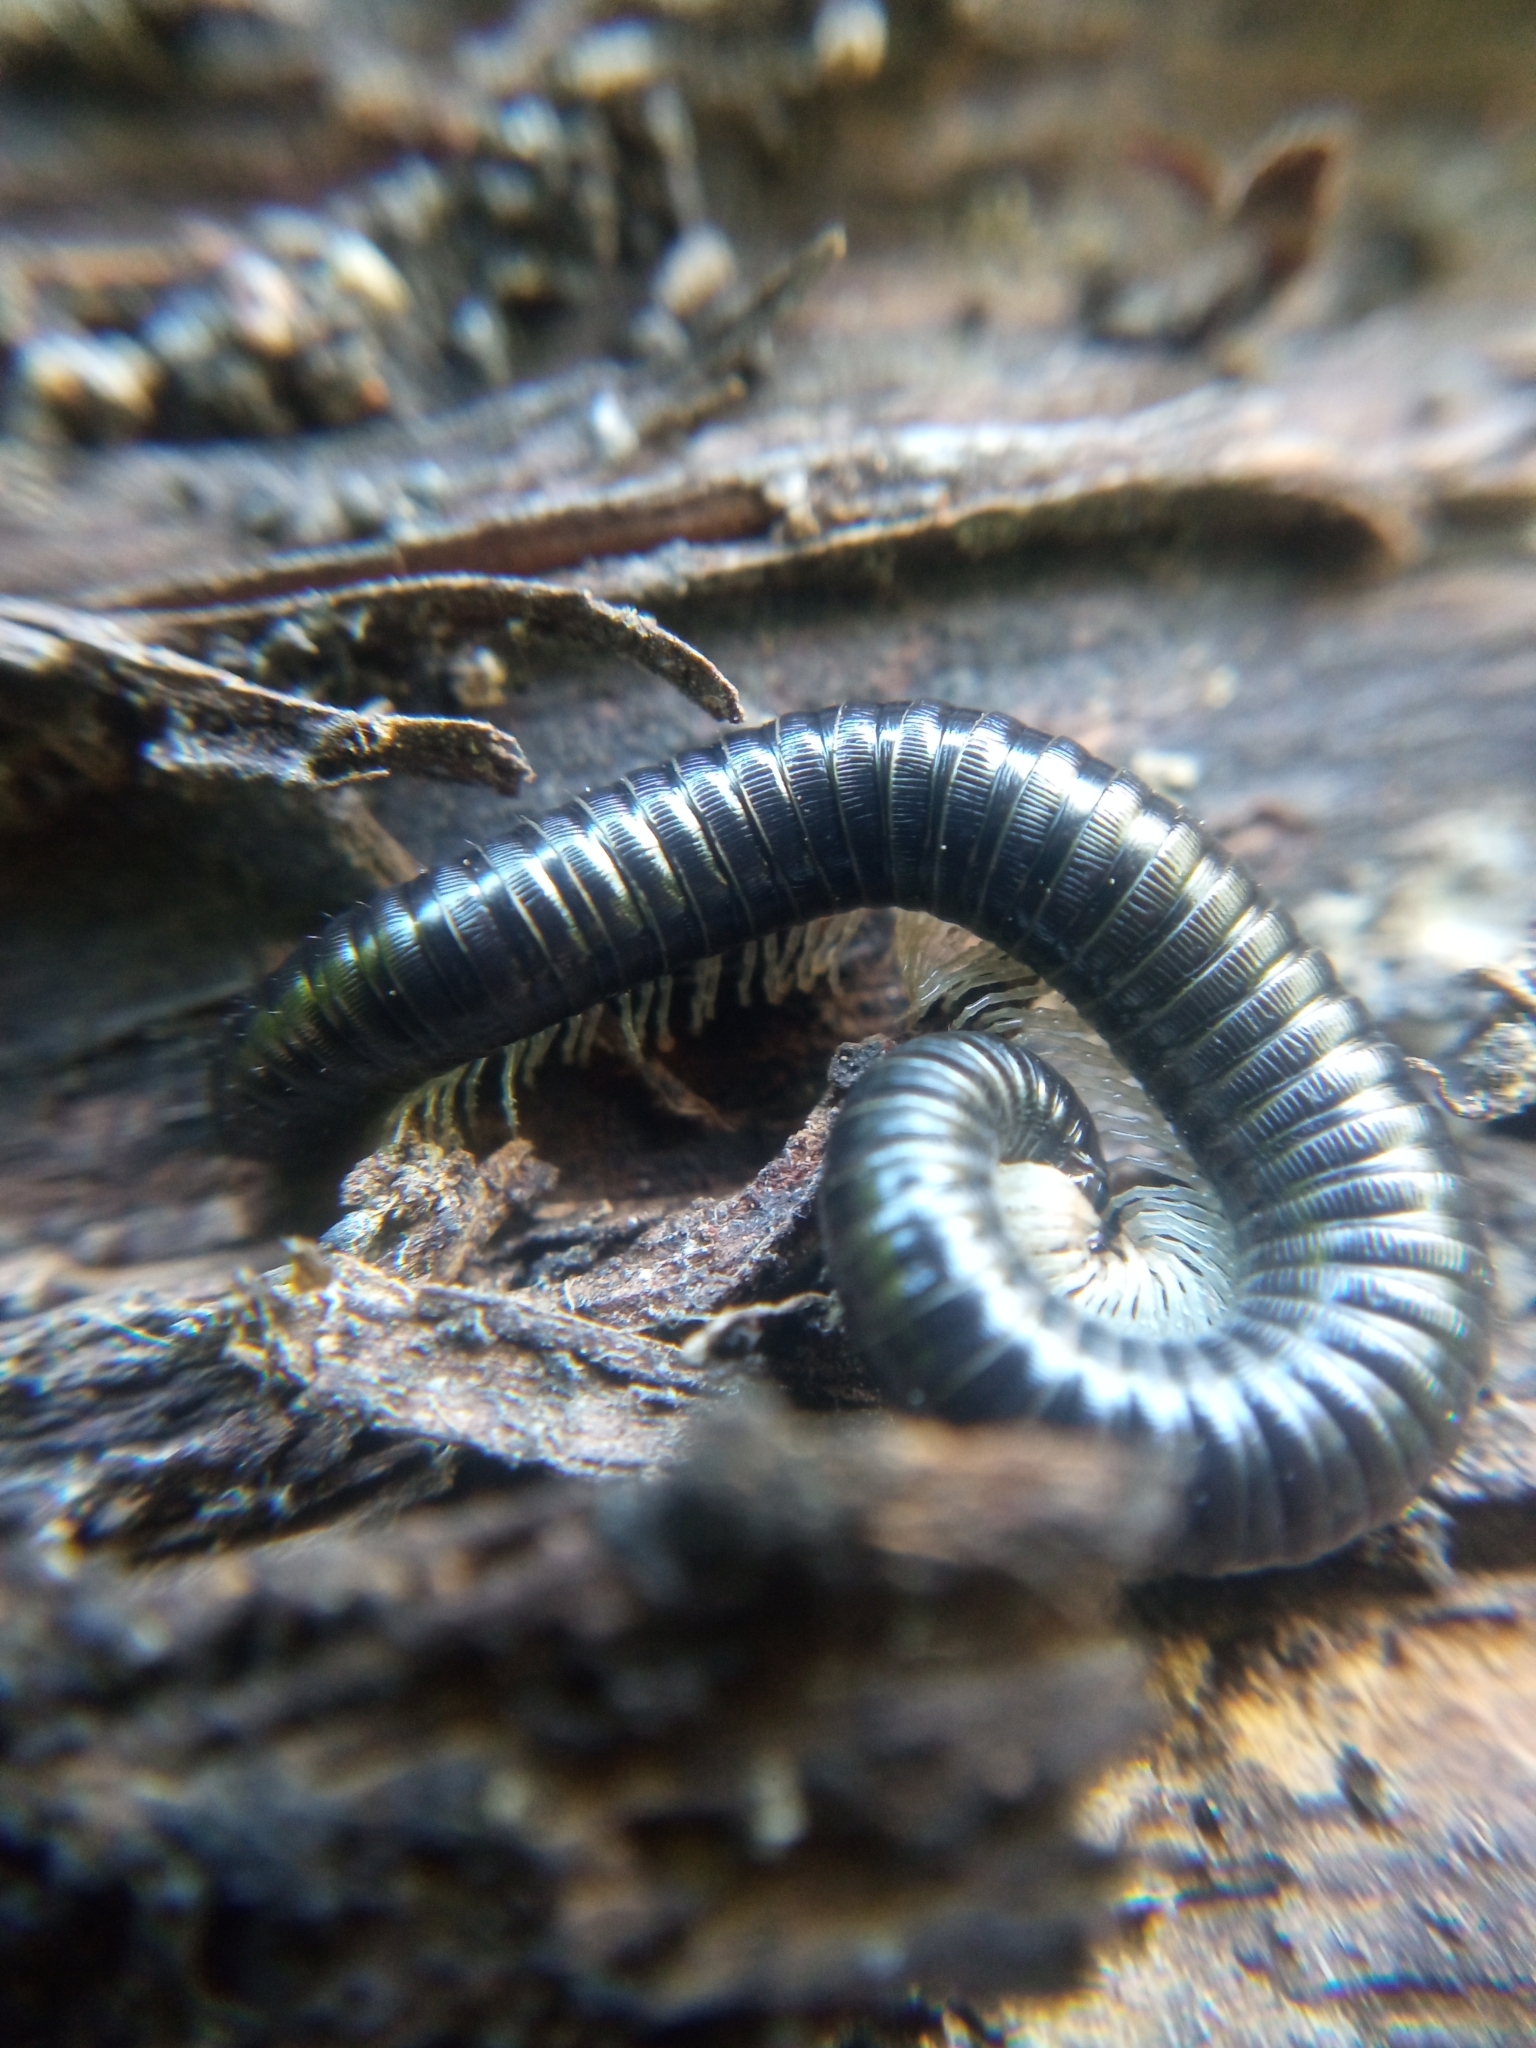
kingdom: Animalia
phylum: Arthropoda
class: Diplopoda
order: Julida
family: Julidae
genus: Tachypodoiulus
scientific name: Tachypodoiulus niger
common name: White-legged snake millipede
